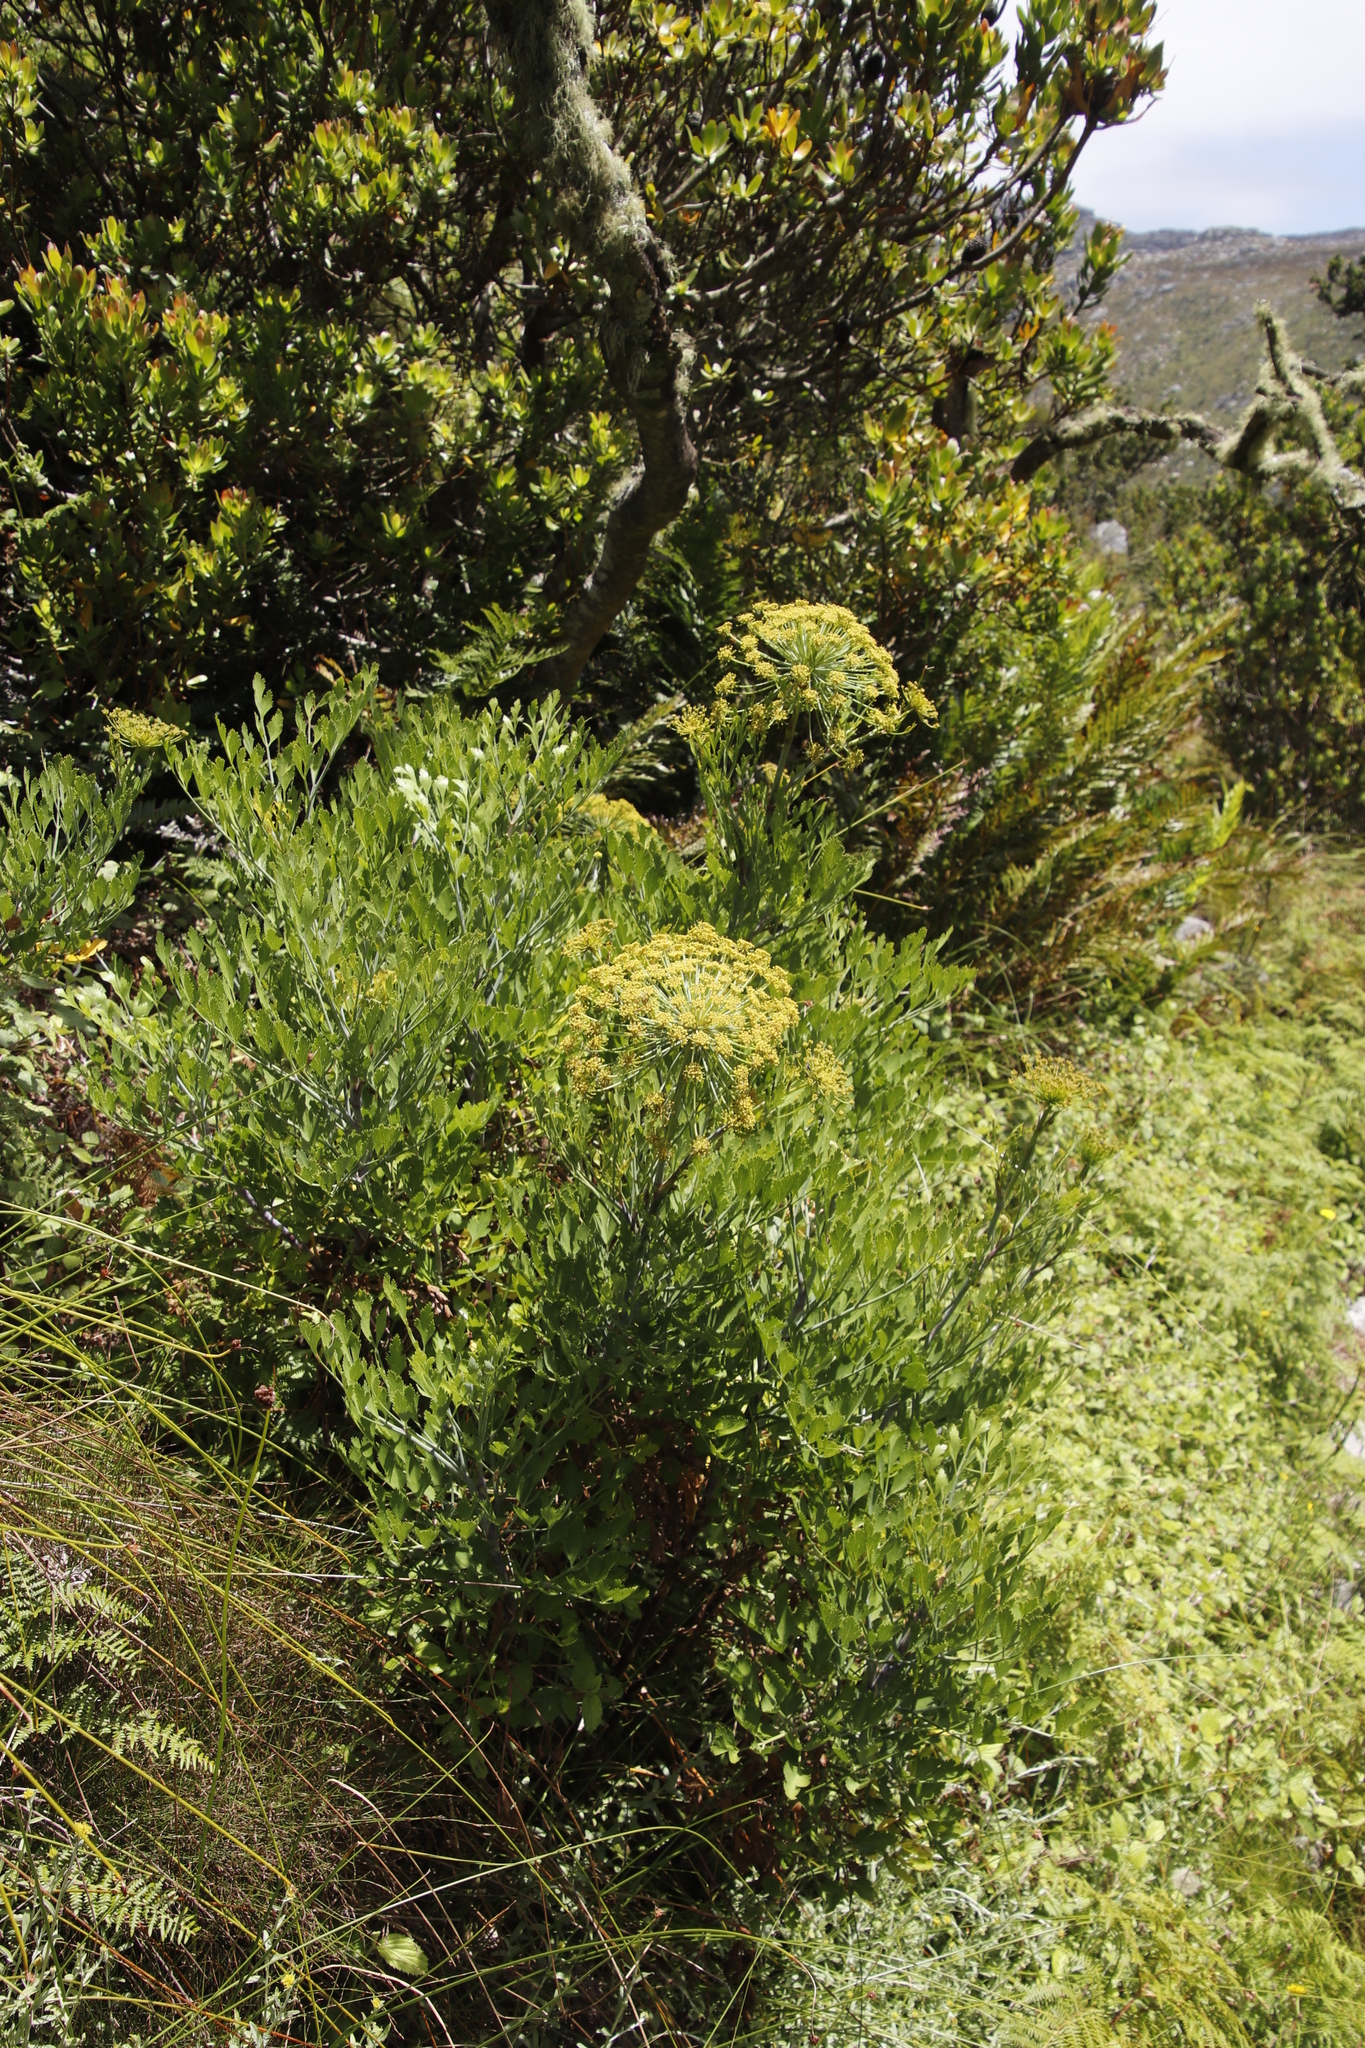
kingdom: Plantae
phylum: Tracheophyta
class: Magnoliopsida
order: Apiales
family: Apiaceae
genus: Notobubon
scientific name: Notobubon galbanum
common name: Blisterbush
